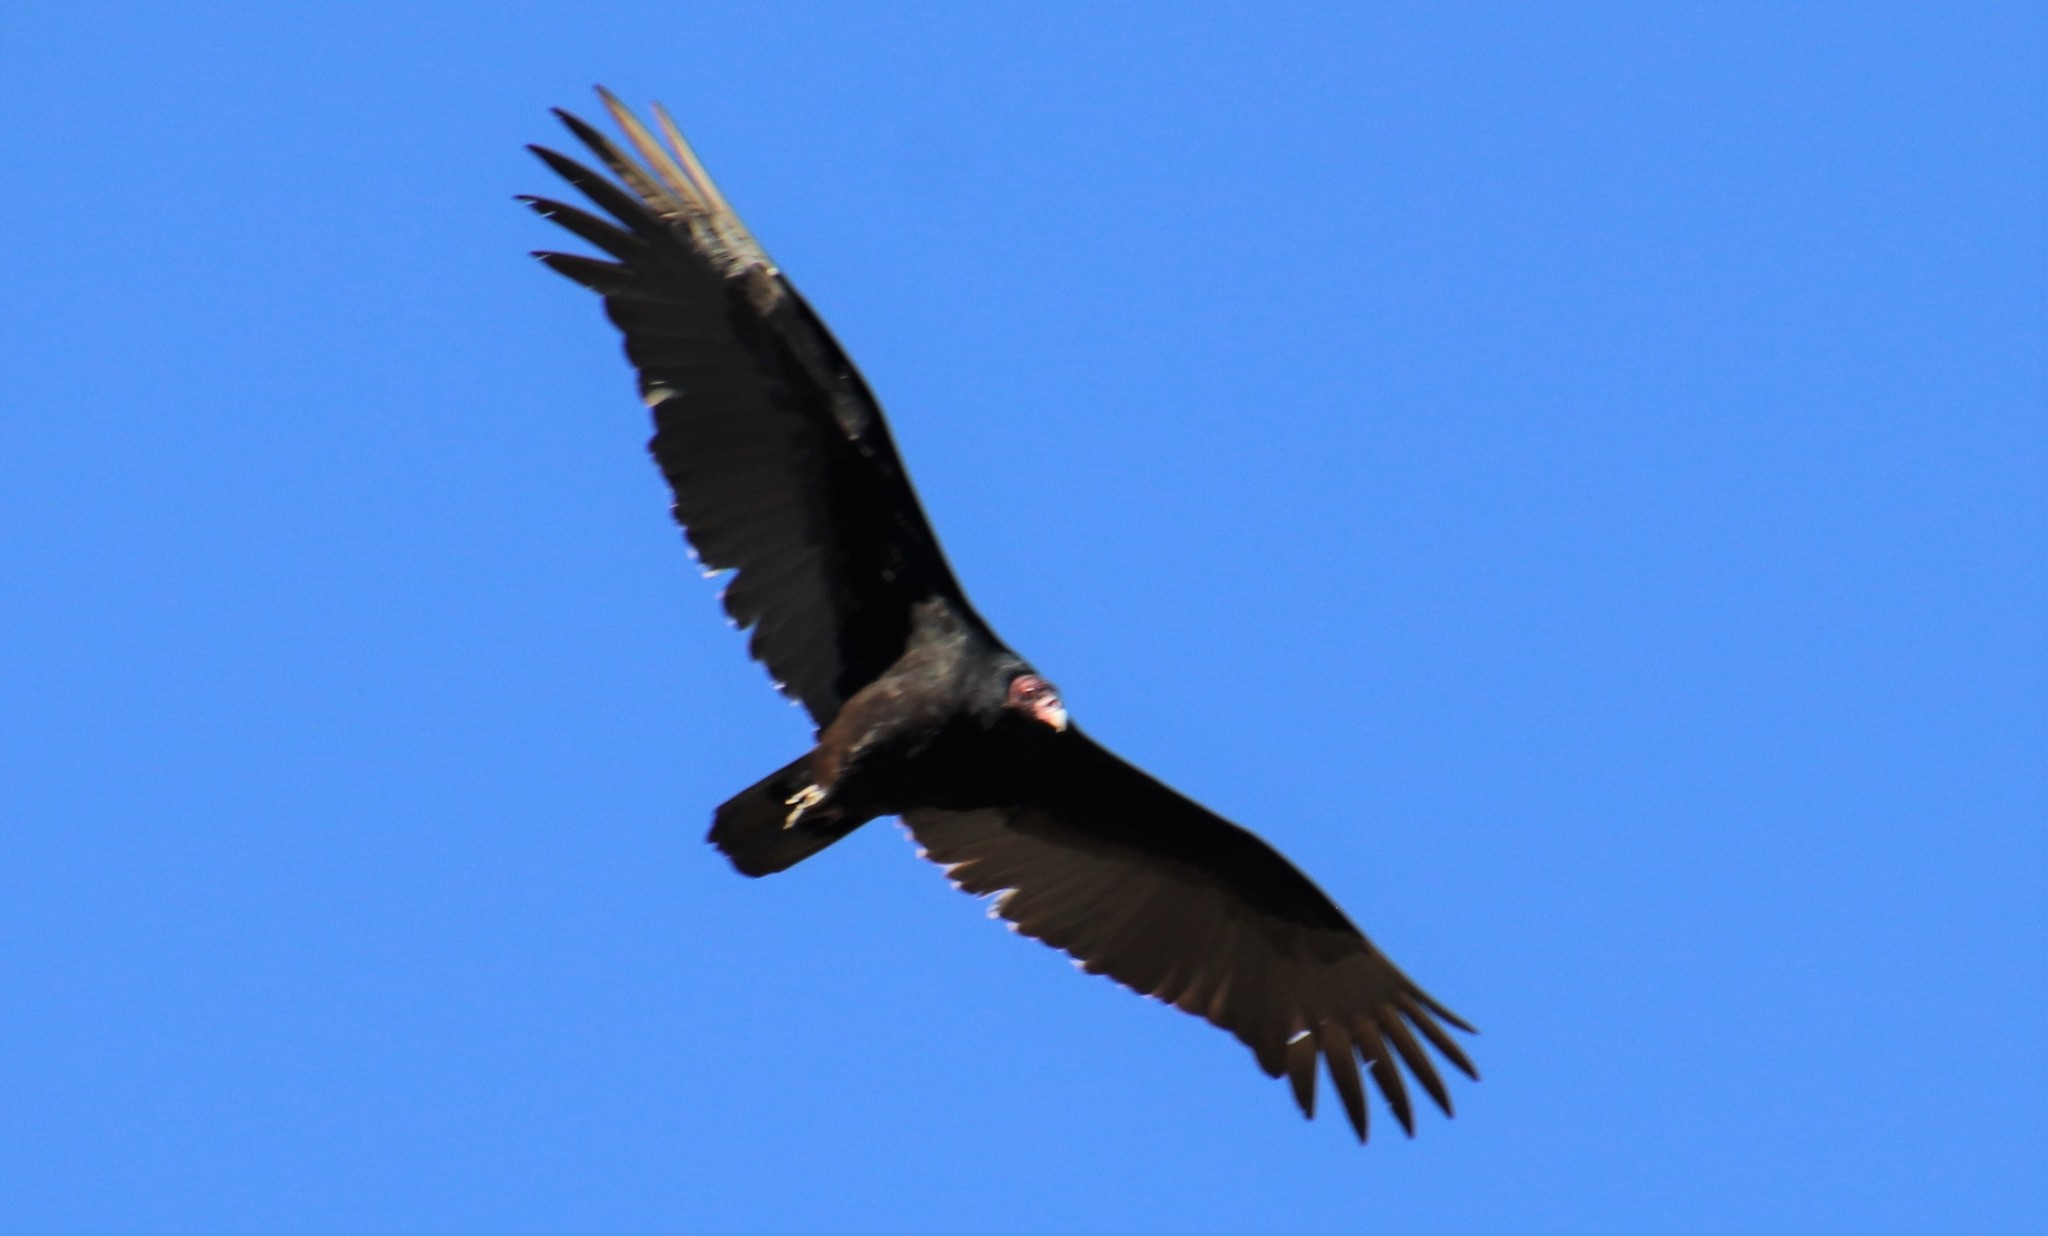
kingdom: Animalia
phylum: Chordata
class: Aves
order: Accipitriformes
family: Cathartidae
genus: Cathartes
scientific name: Cathartes aura
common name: Turkey vulture
